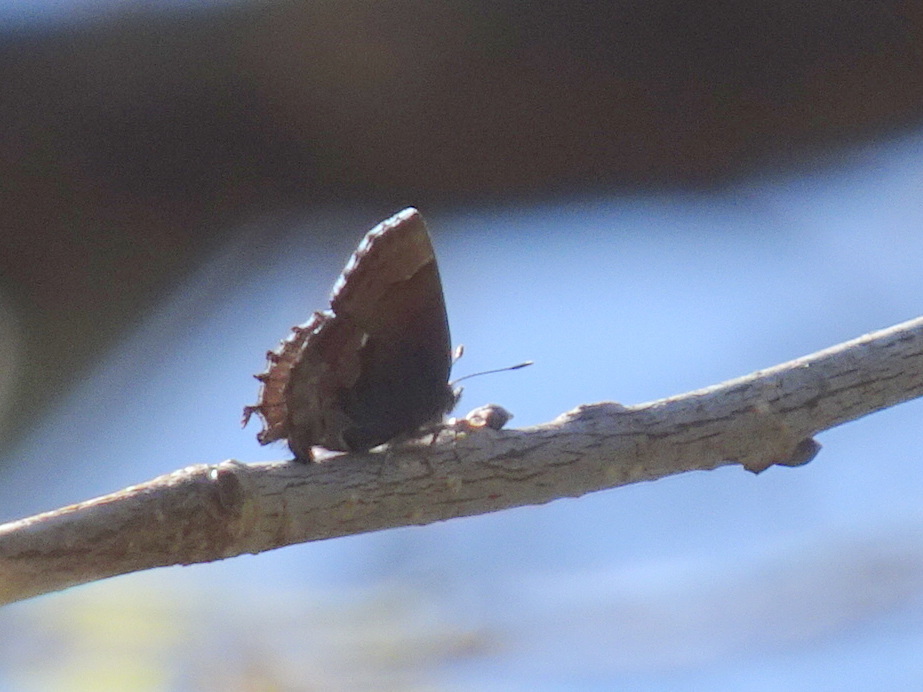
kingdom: Animalia
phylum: Arthropoda
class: Insecta
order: Lepidoptera
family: Lycaenidae
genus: Incisalia
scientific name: Incisalia henrici
